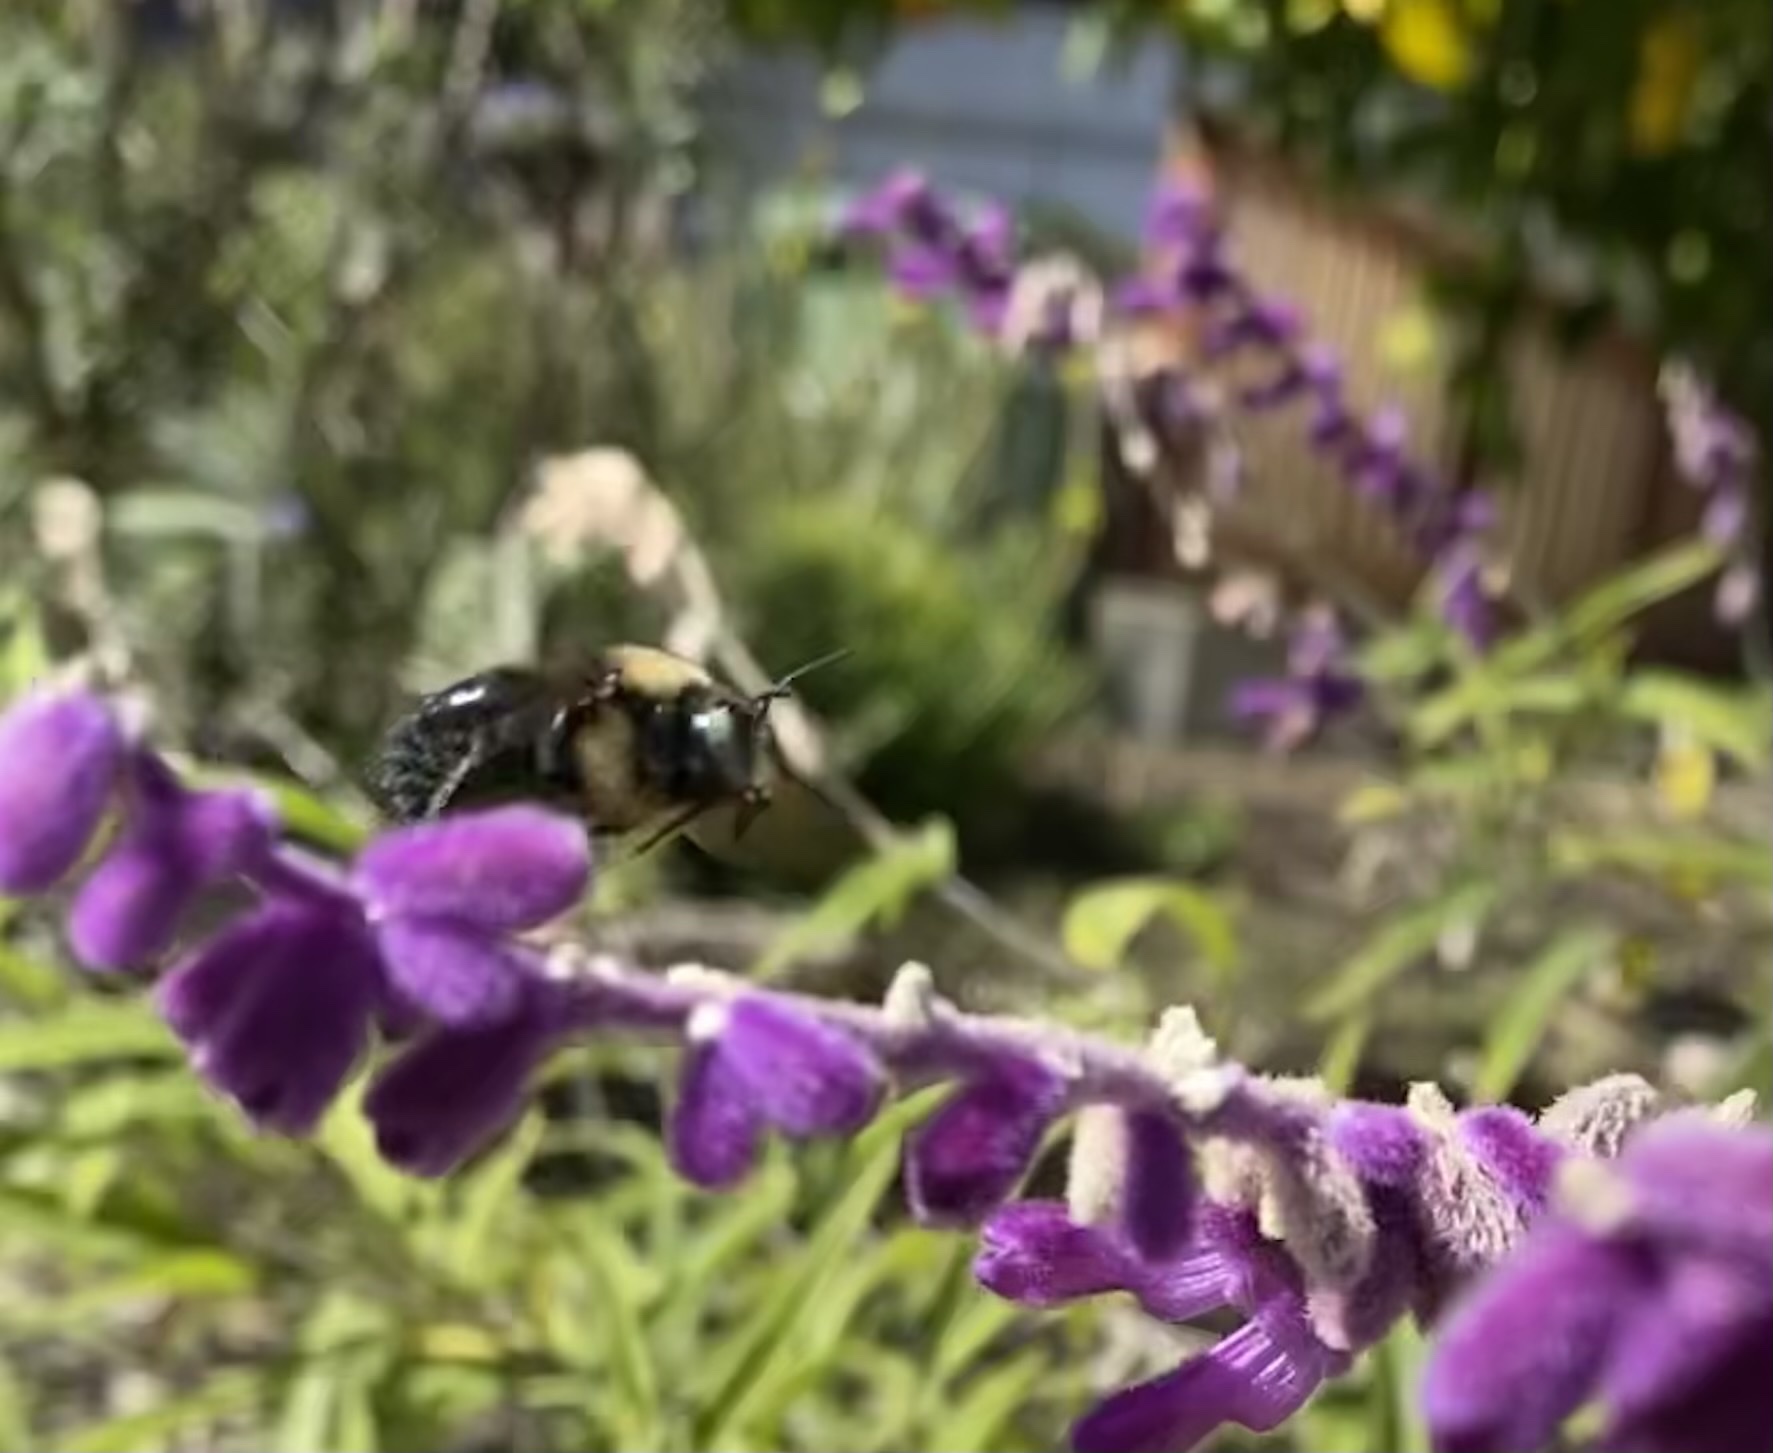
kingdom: Animalia
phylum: Arthropoda
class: Insecta
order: Hymenoptera
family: Apidae
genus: Xylocopa
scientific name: Xylocopa tabaniformis
